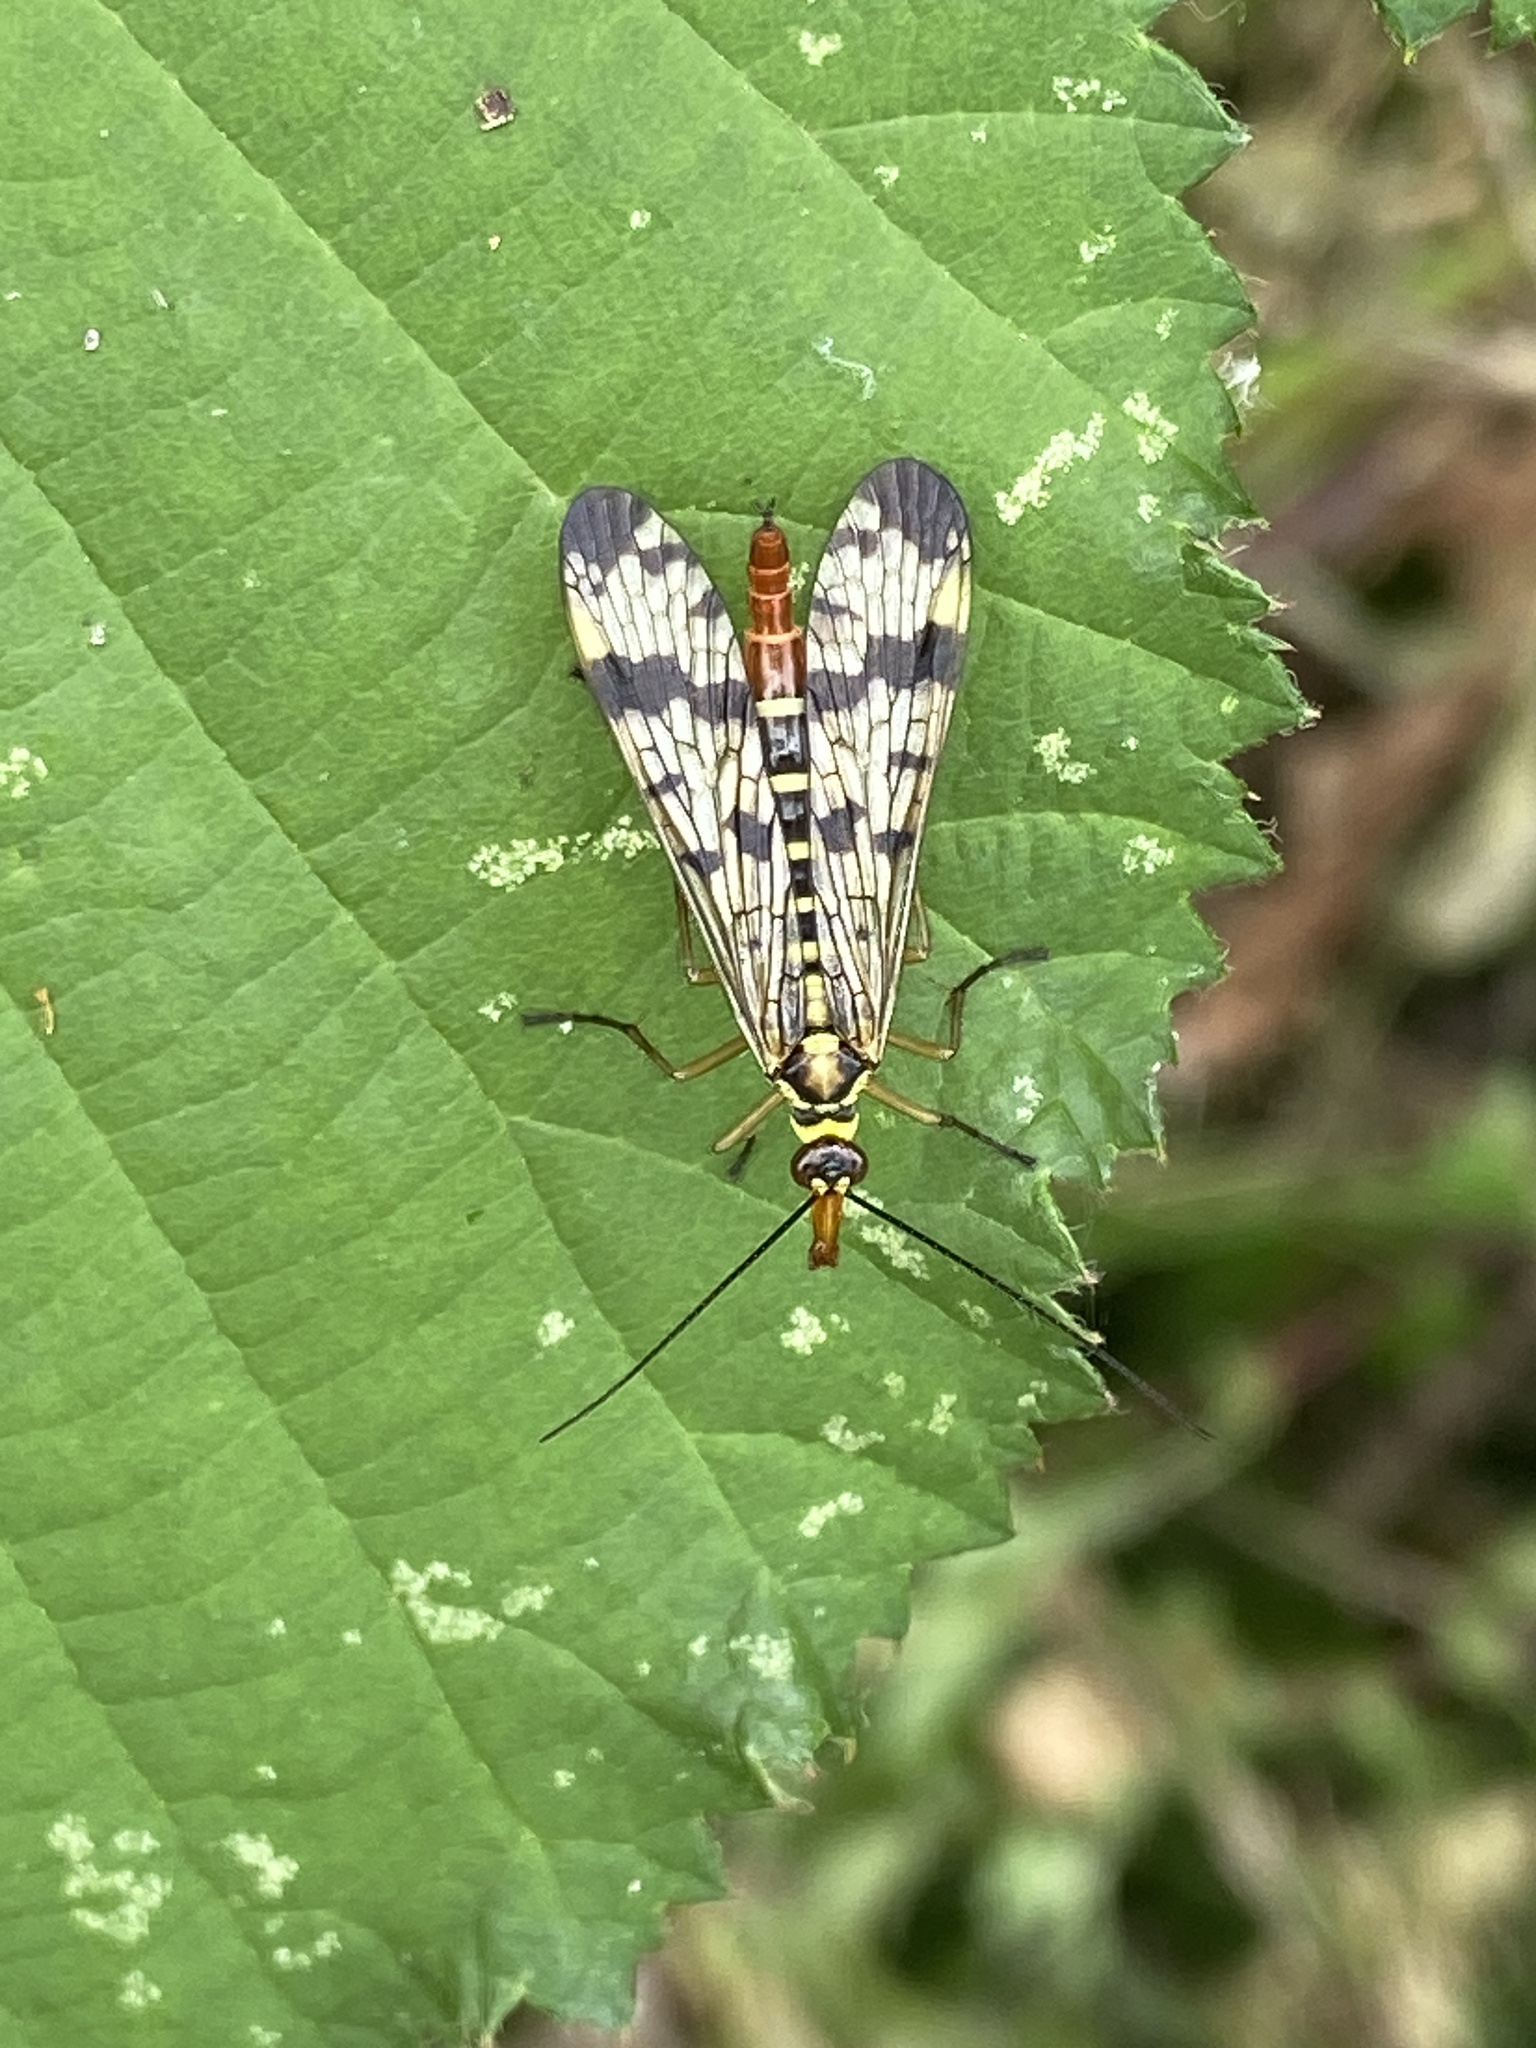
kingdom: Animalia
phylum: Arthropoda
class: Insecta
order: Mecoptera
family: Panorpidae
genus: Panorpa
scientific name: Panorpa communis
